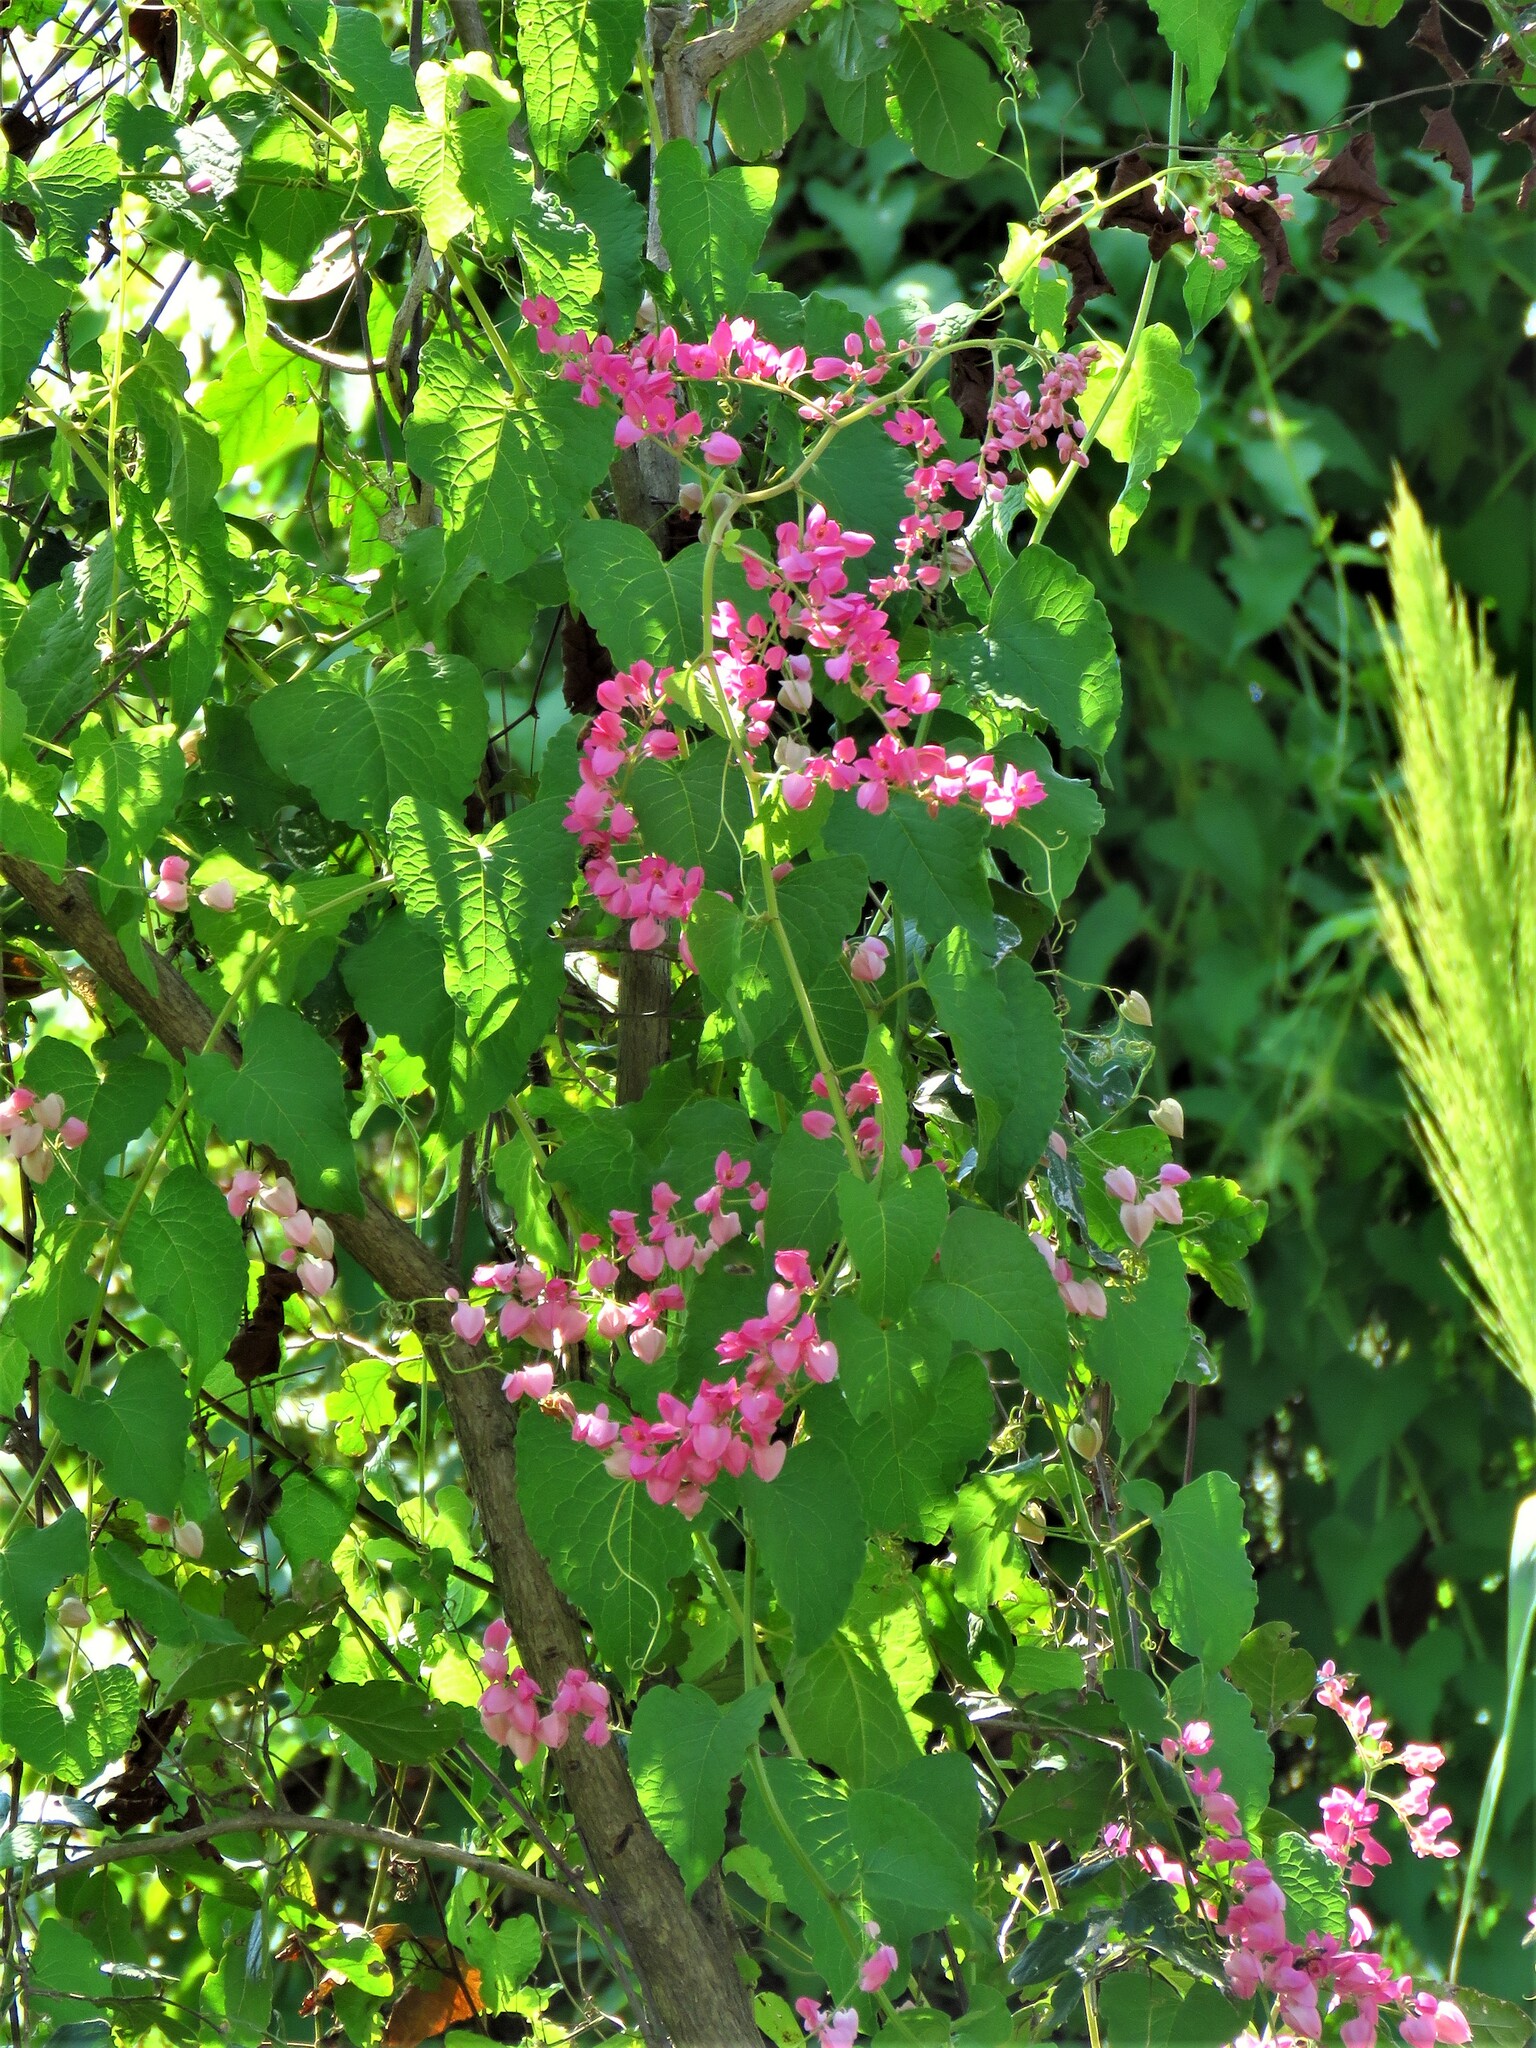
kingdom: Plantae
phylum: Tracheophyta
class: Magnoliopsida
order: Caryophyllales
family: Polygonaceae
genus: Antigonon
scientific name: Antigonon leptopus
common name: Coral vine
